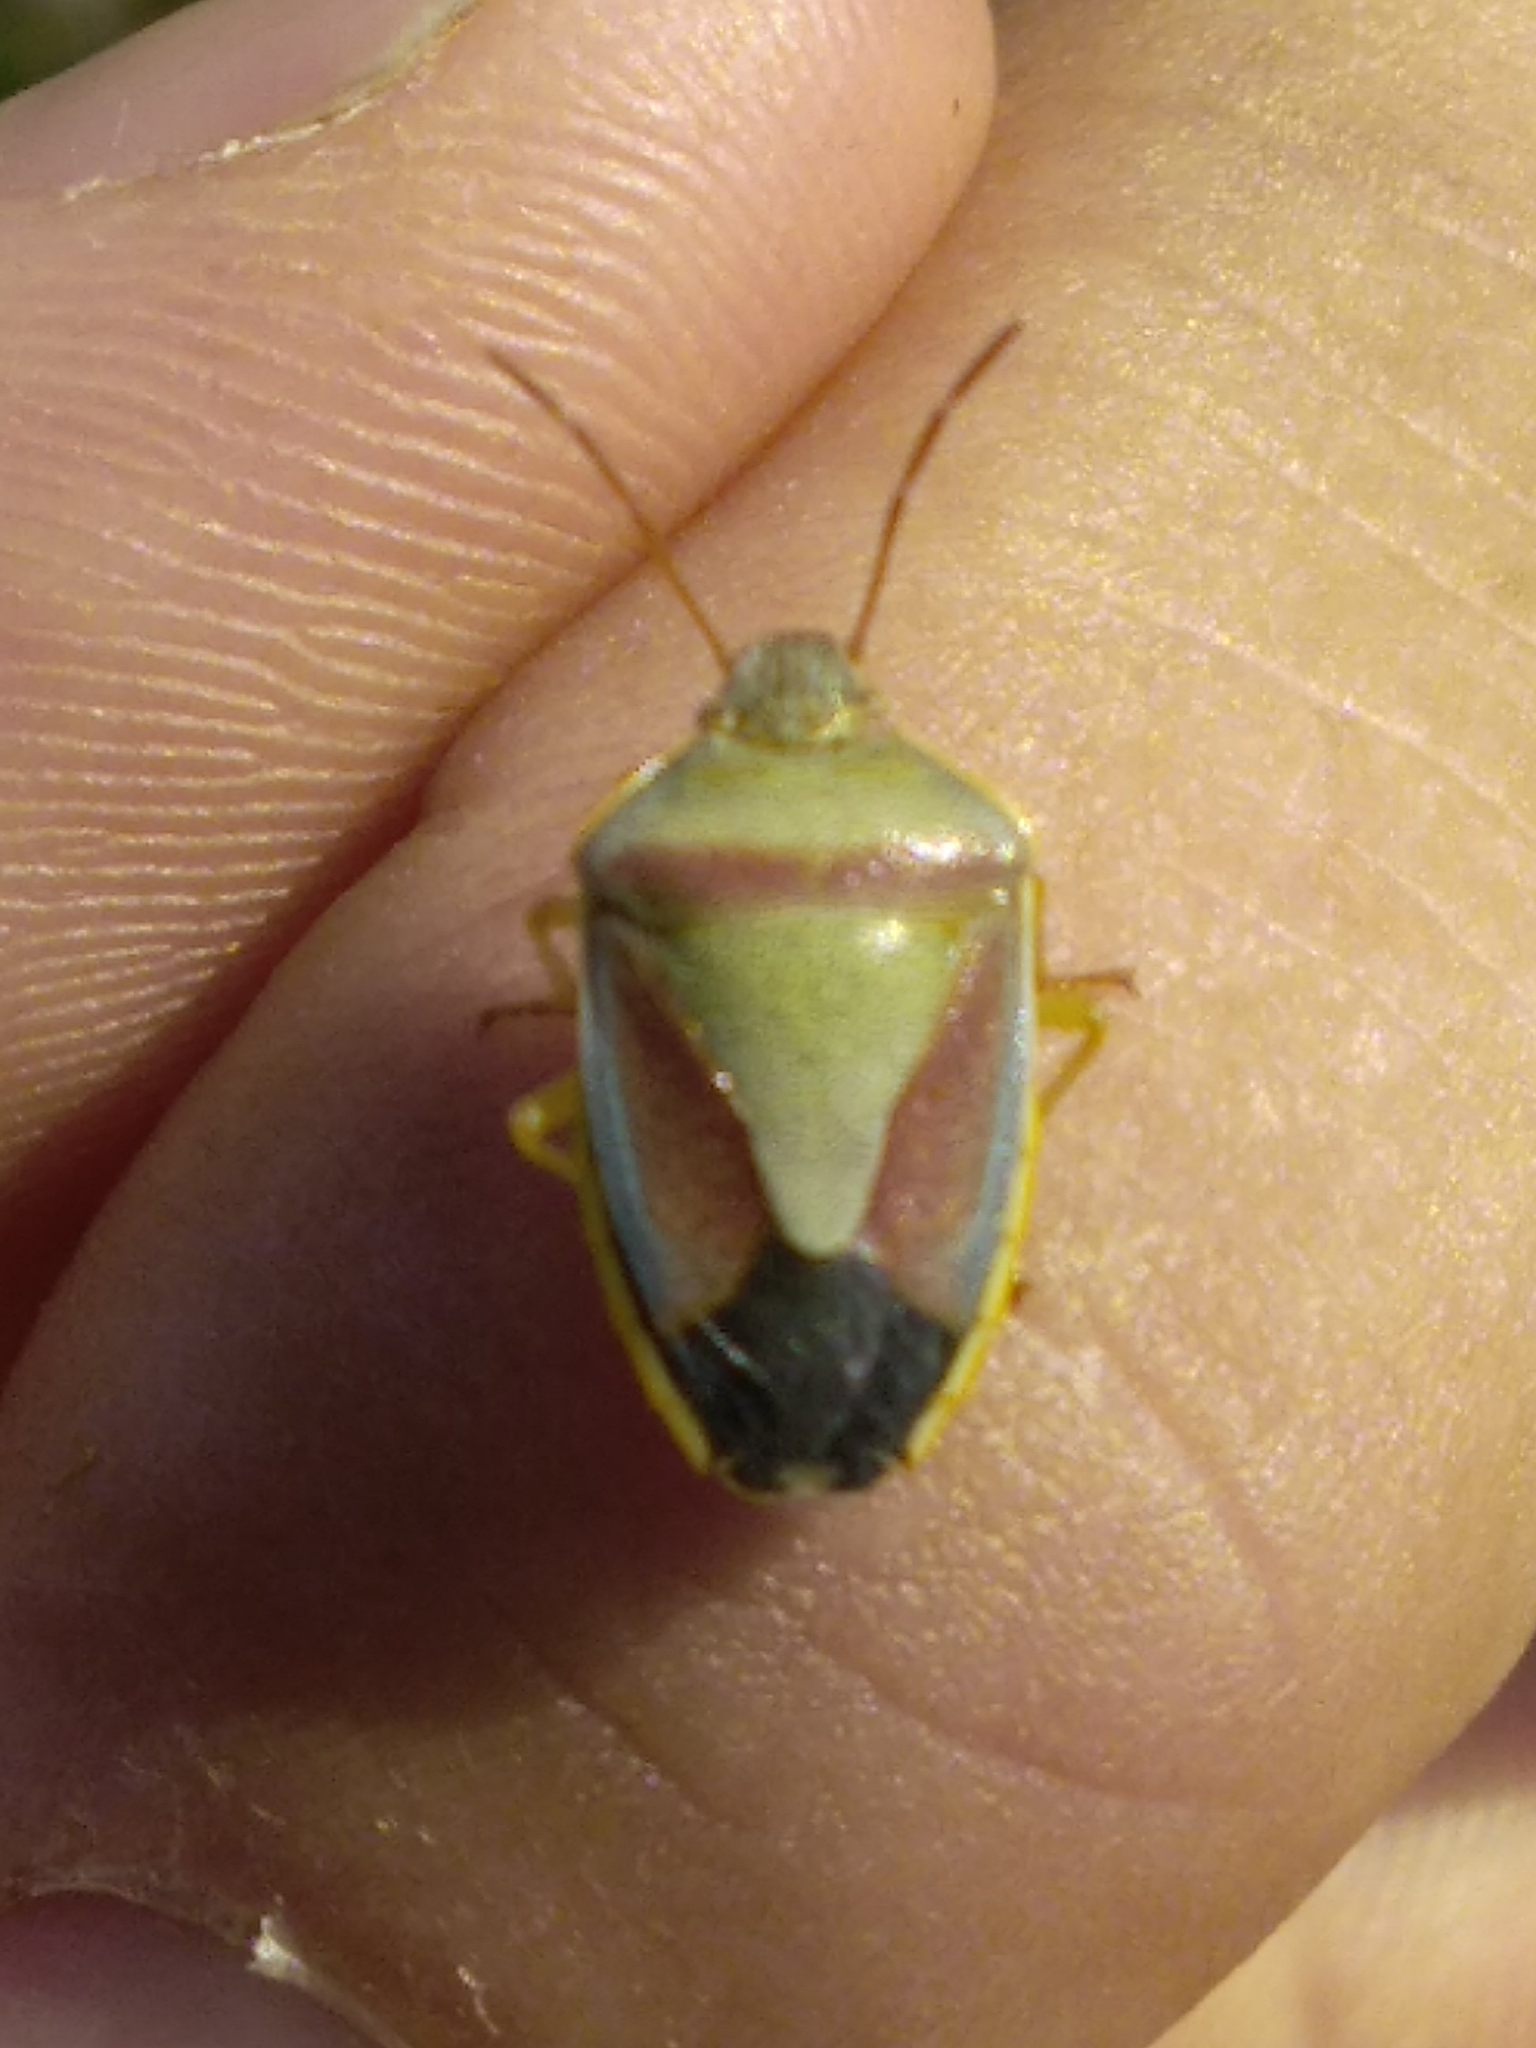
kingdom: Animalia
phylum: Arthropoda
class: Insecta
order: Hemiptera
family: Pentatomidae
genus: Piezodorus
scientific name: Piezodorus lituratus
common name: Stink bug
